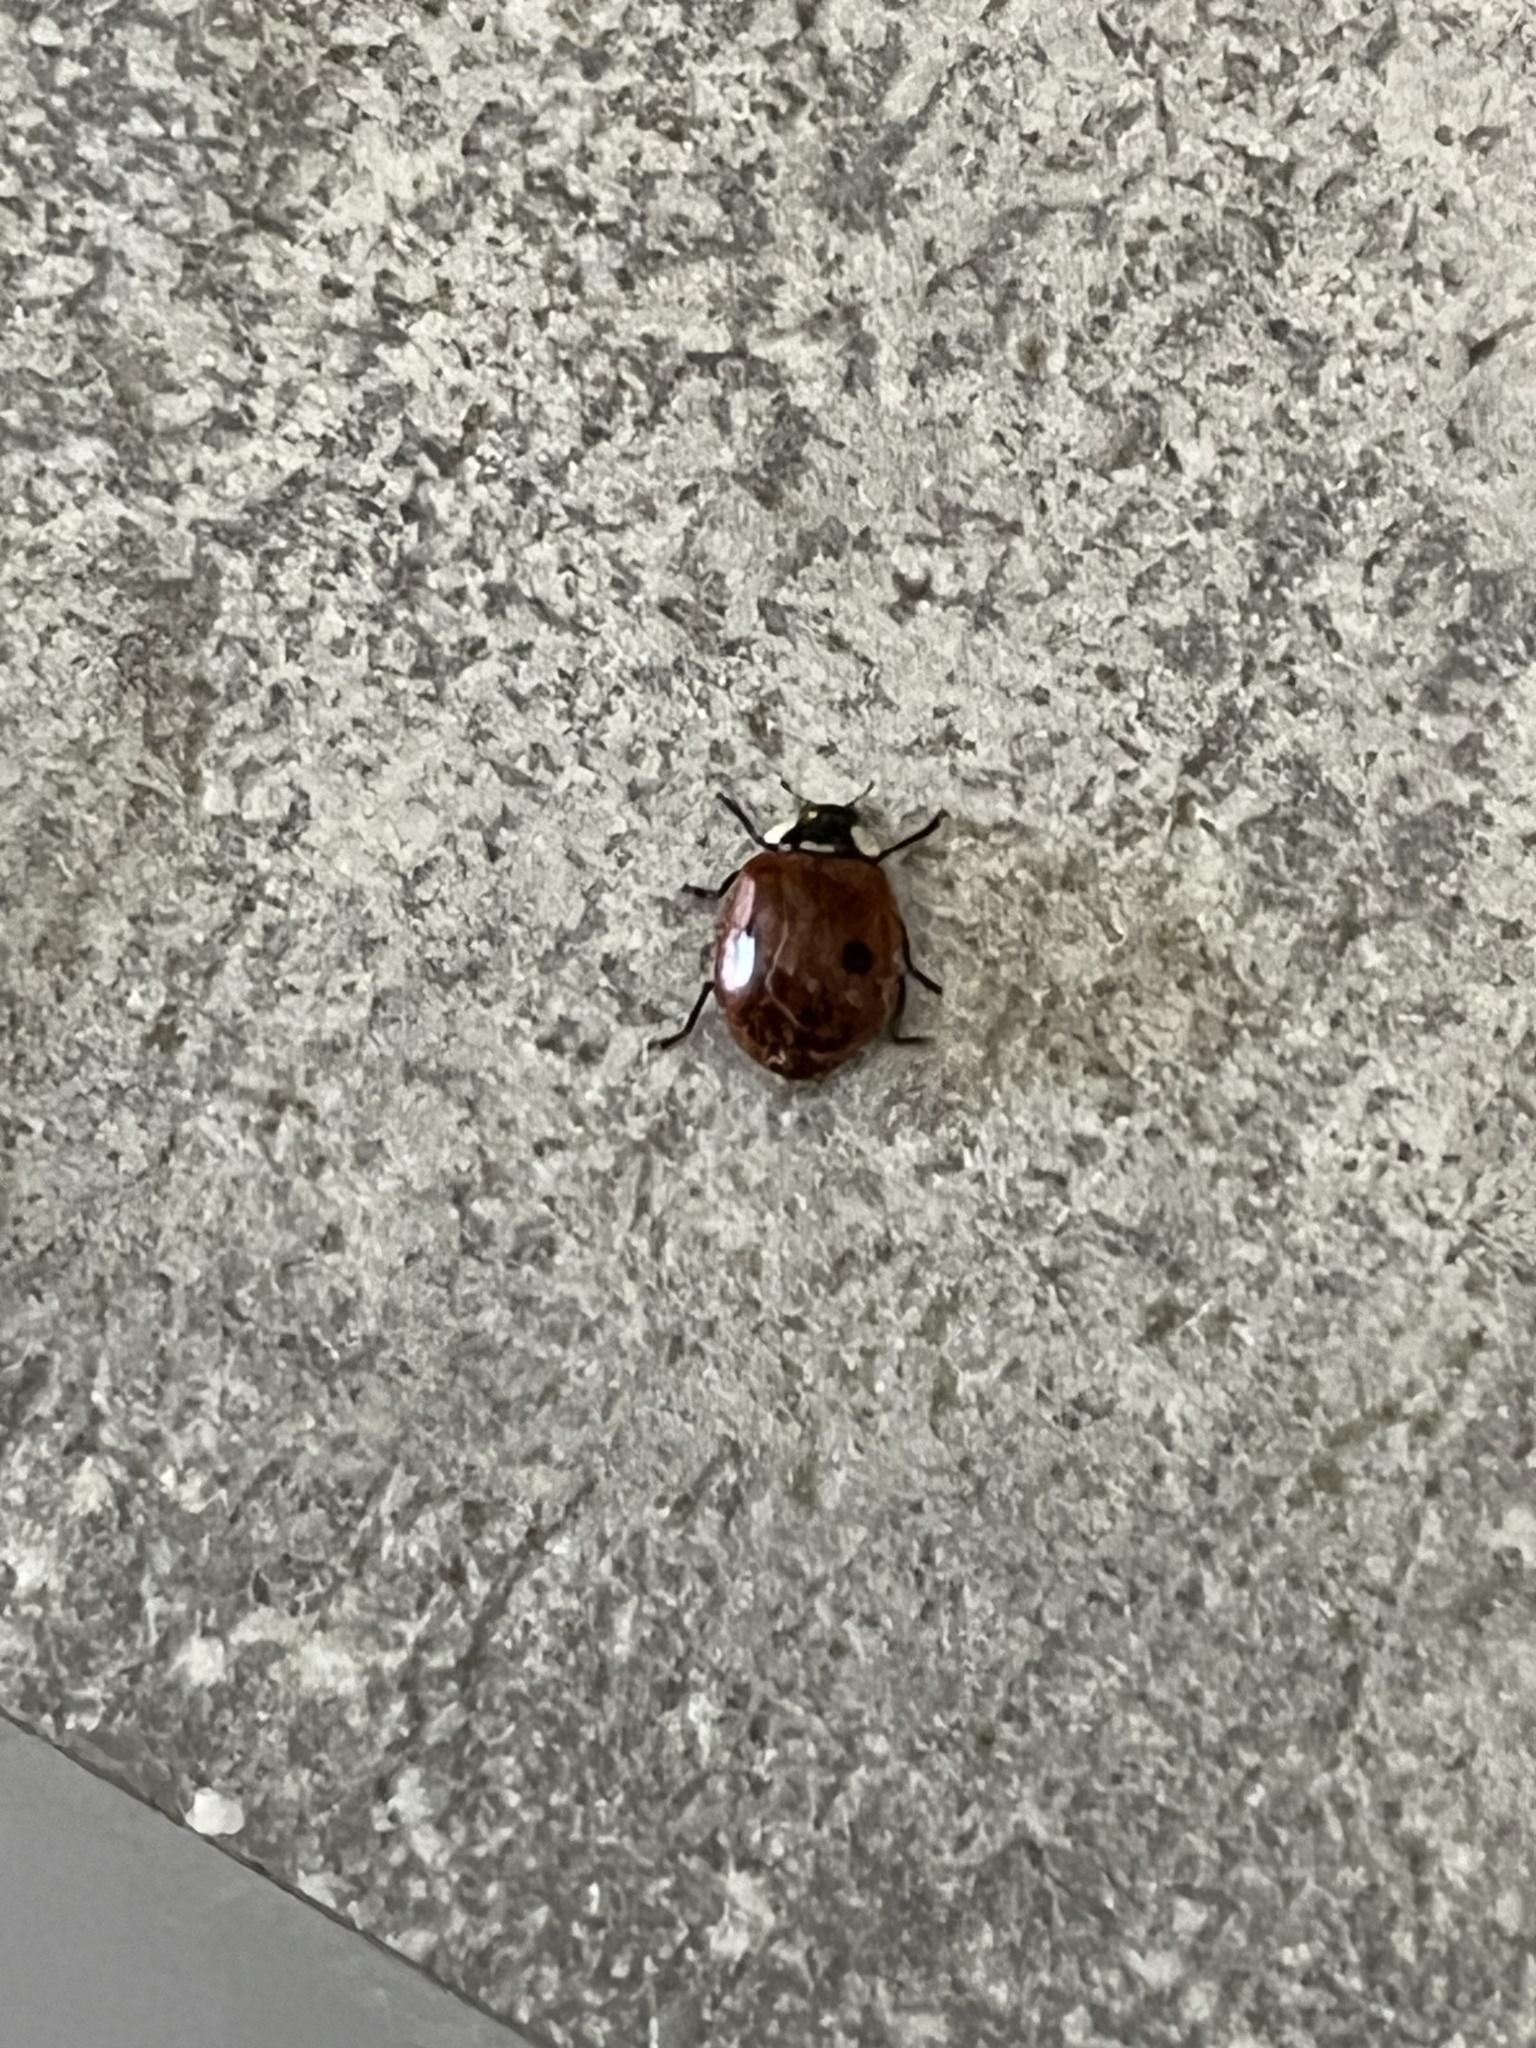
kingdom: Animalia
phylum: Arthropoda
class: Insecta
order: Coleoptera
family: Coccinellidae
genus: Adalia
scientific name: Adalia bipunctata
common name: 2-spot ladybird
